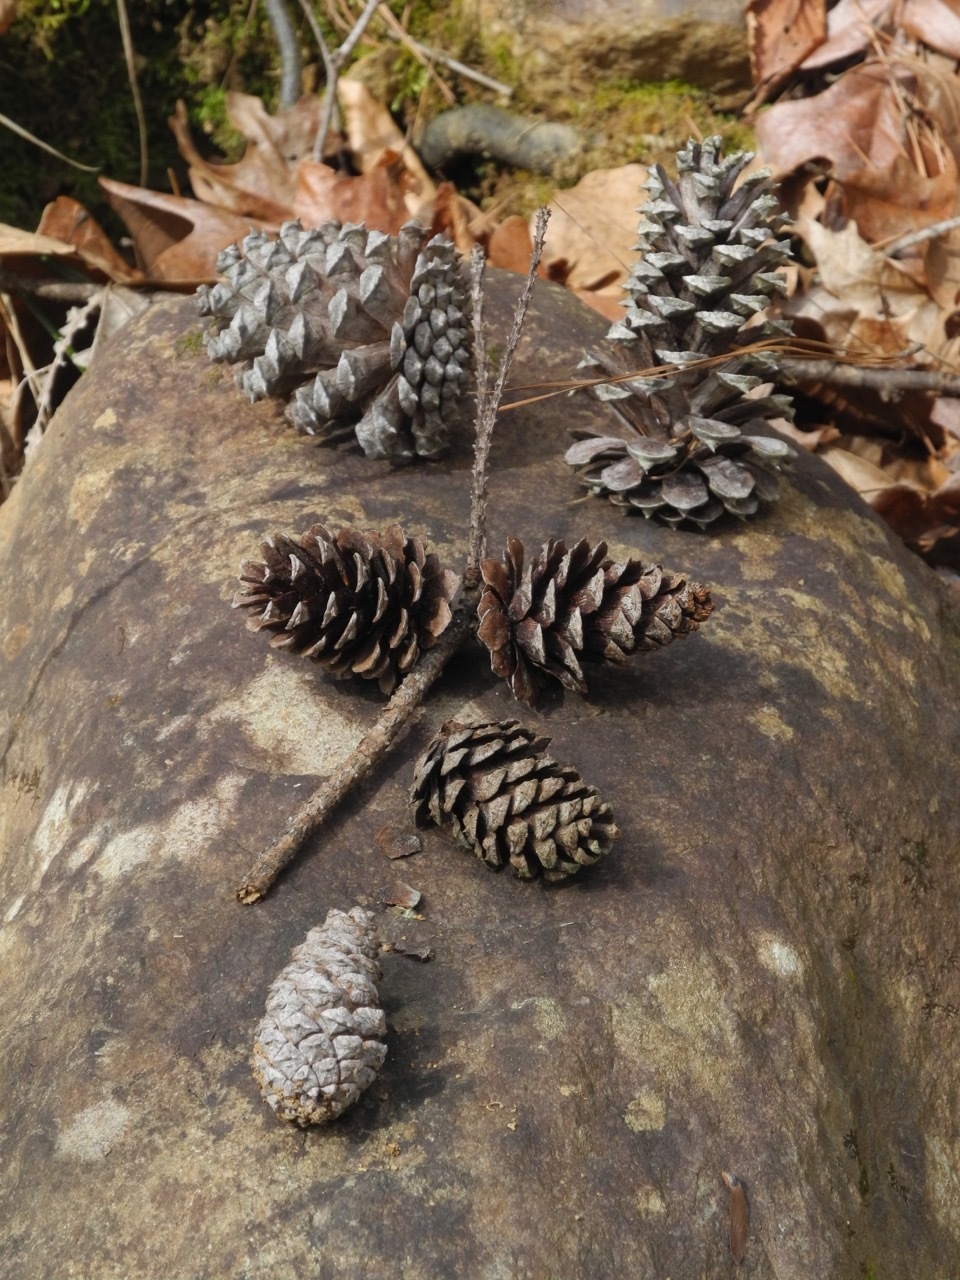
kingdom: Plantae
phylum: Tracheophyta
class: Pinopsida
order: Pinales
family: Pinaceae
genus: Pinus
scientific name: Pinus echinata
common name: Shortleaf pine
